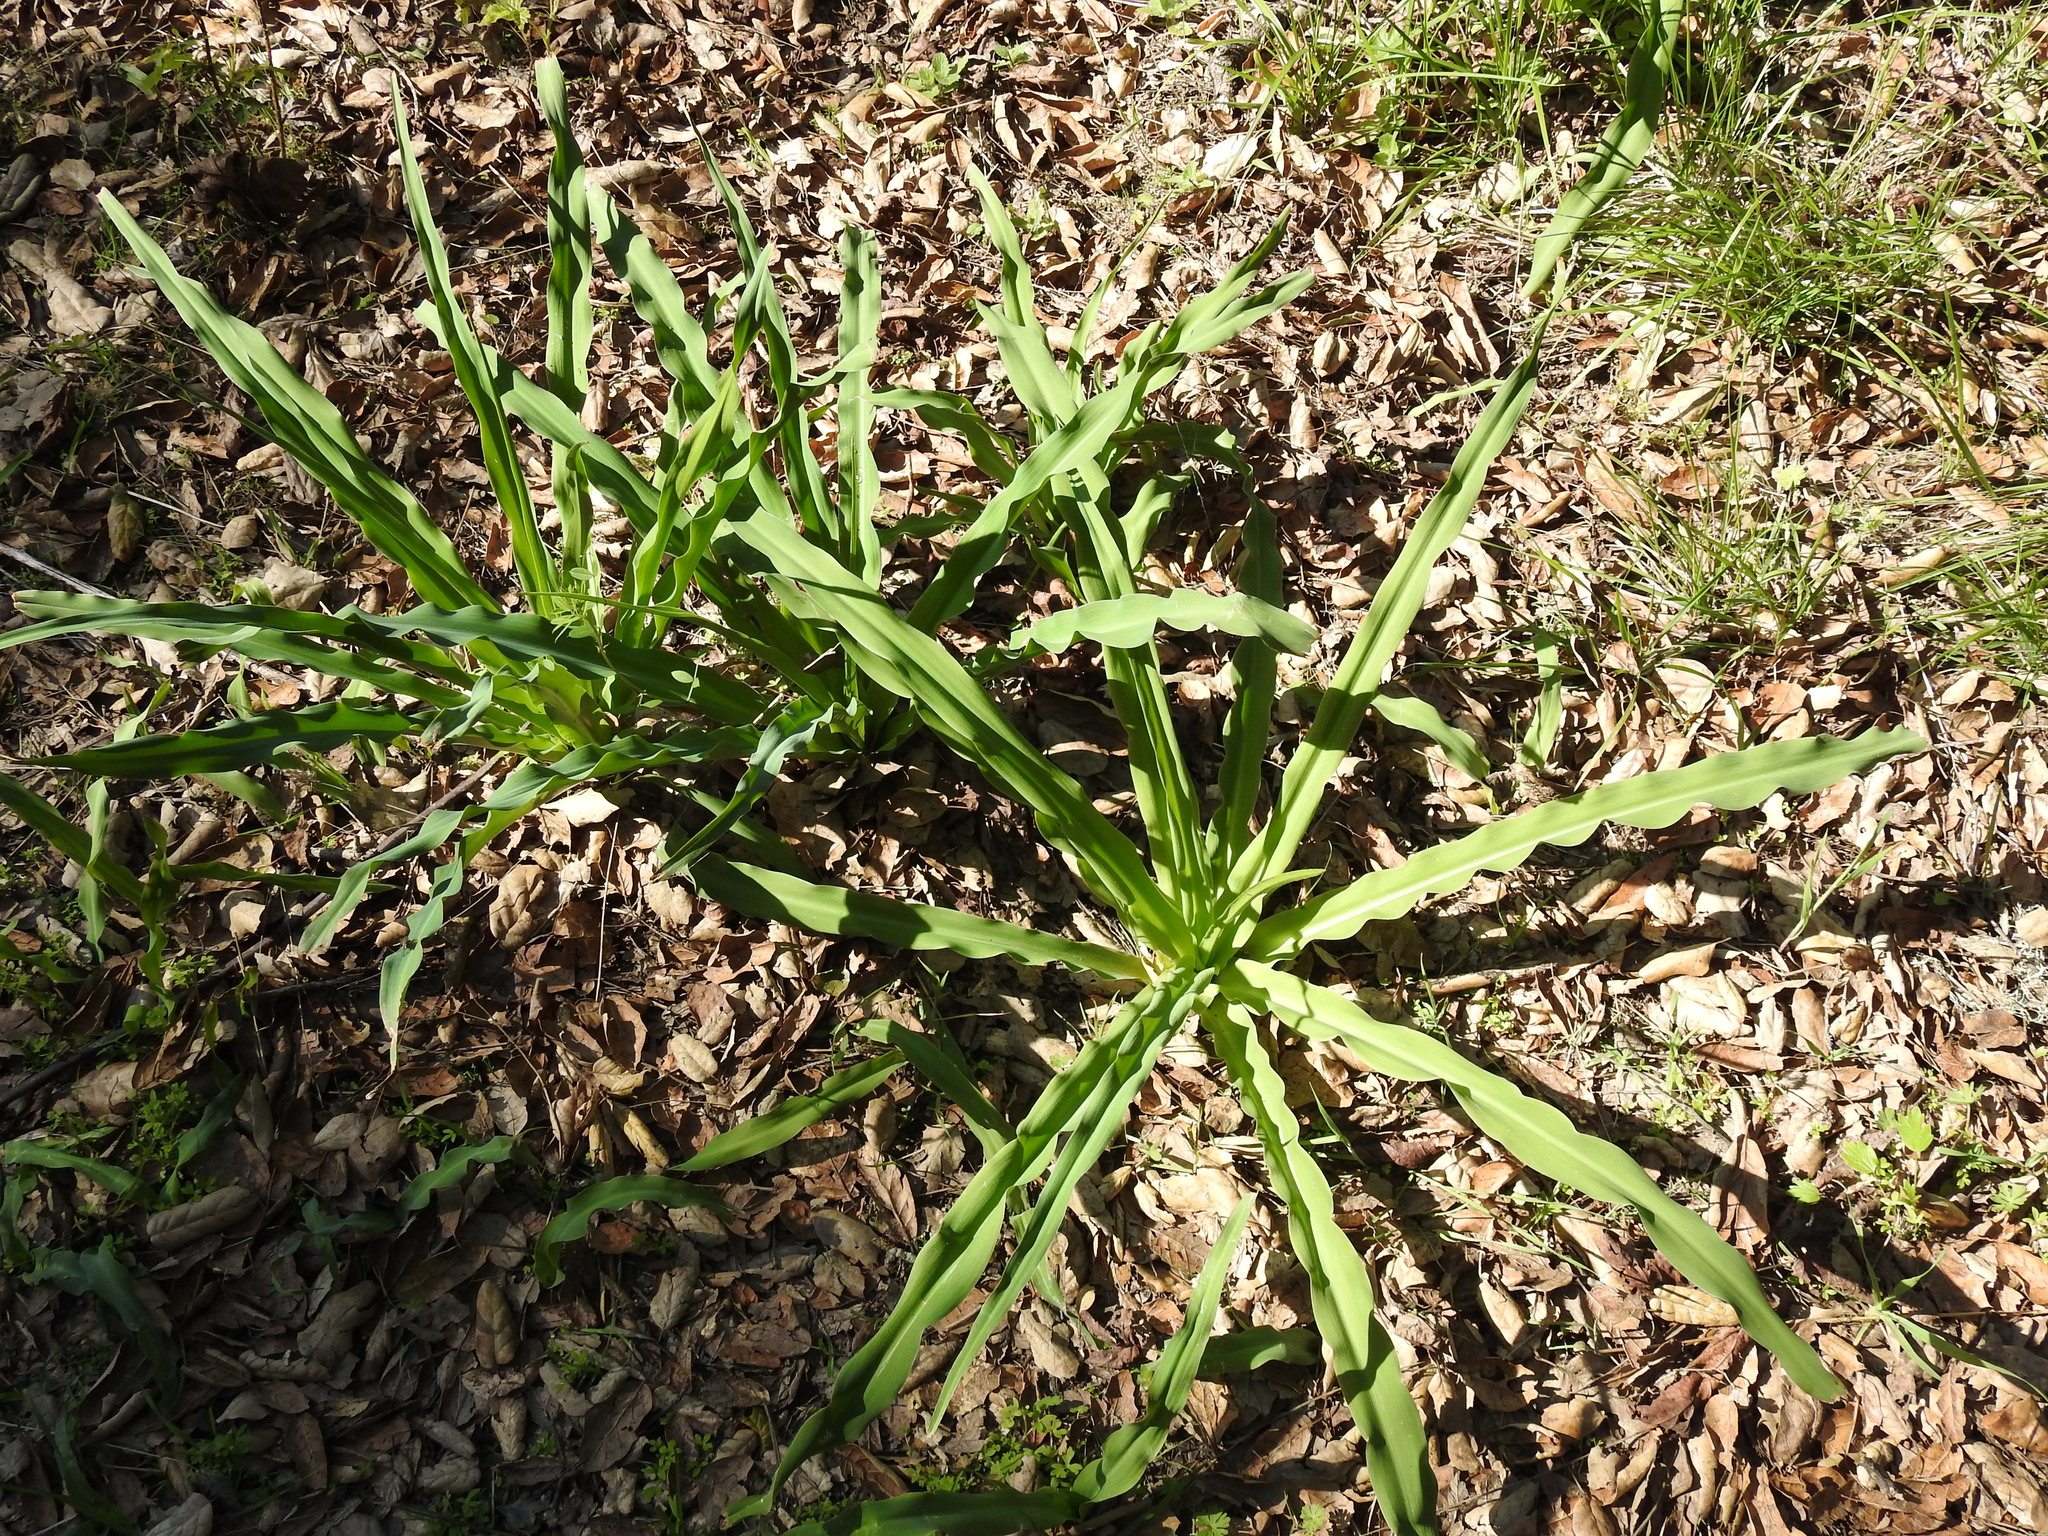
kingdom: Plantae
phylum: Tracheophyta
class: Liliopsida
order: Asparagales
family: Asparagaceae
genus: Chlorogalum
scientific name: Chlorogalum pomeridianum
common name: Amole
